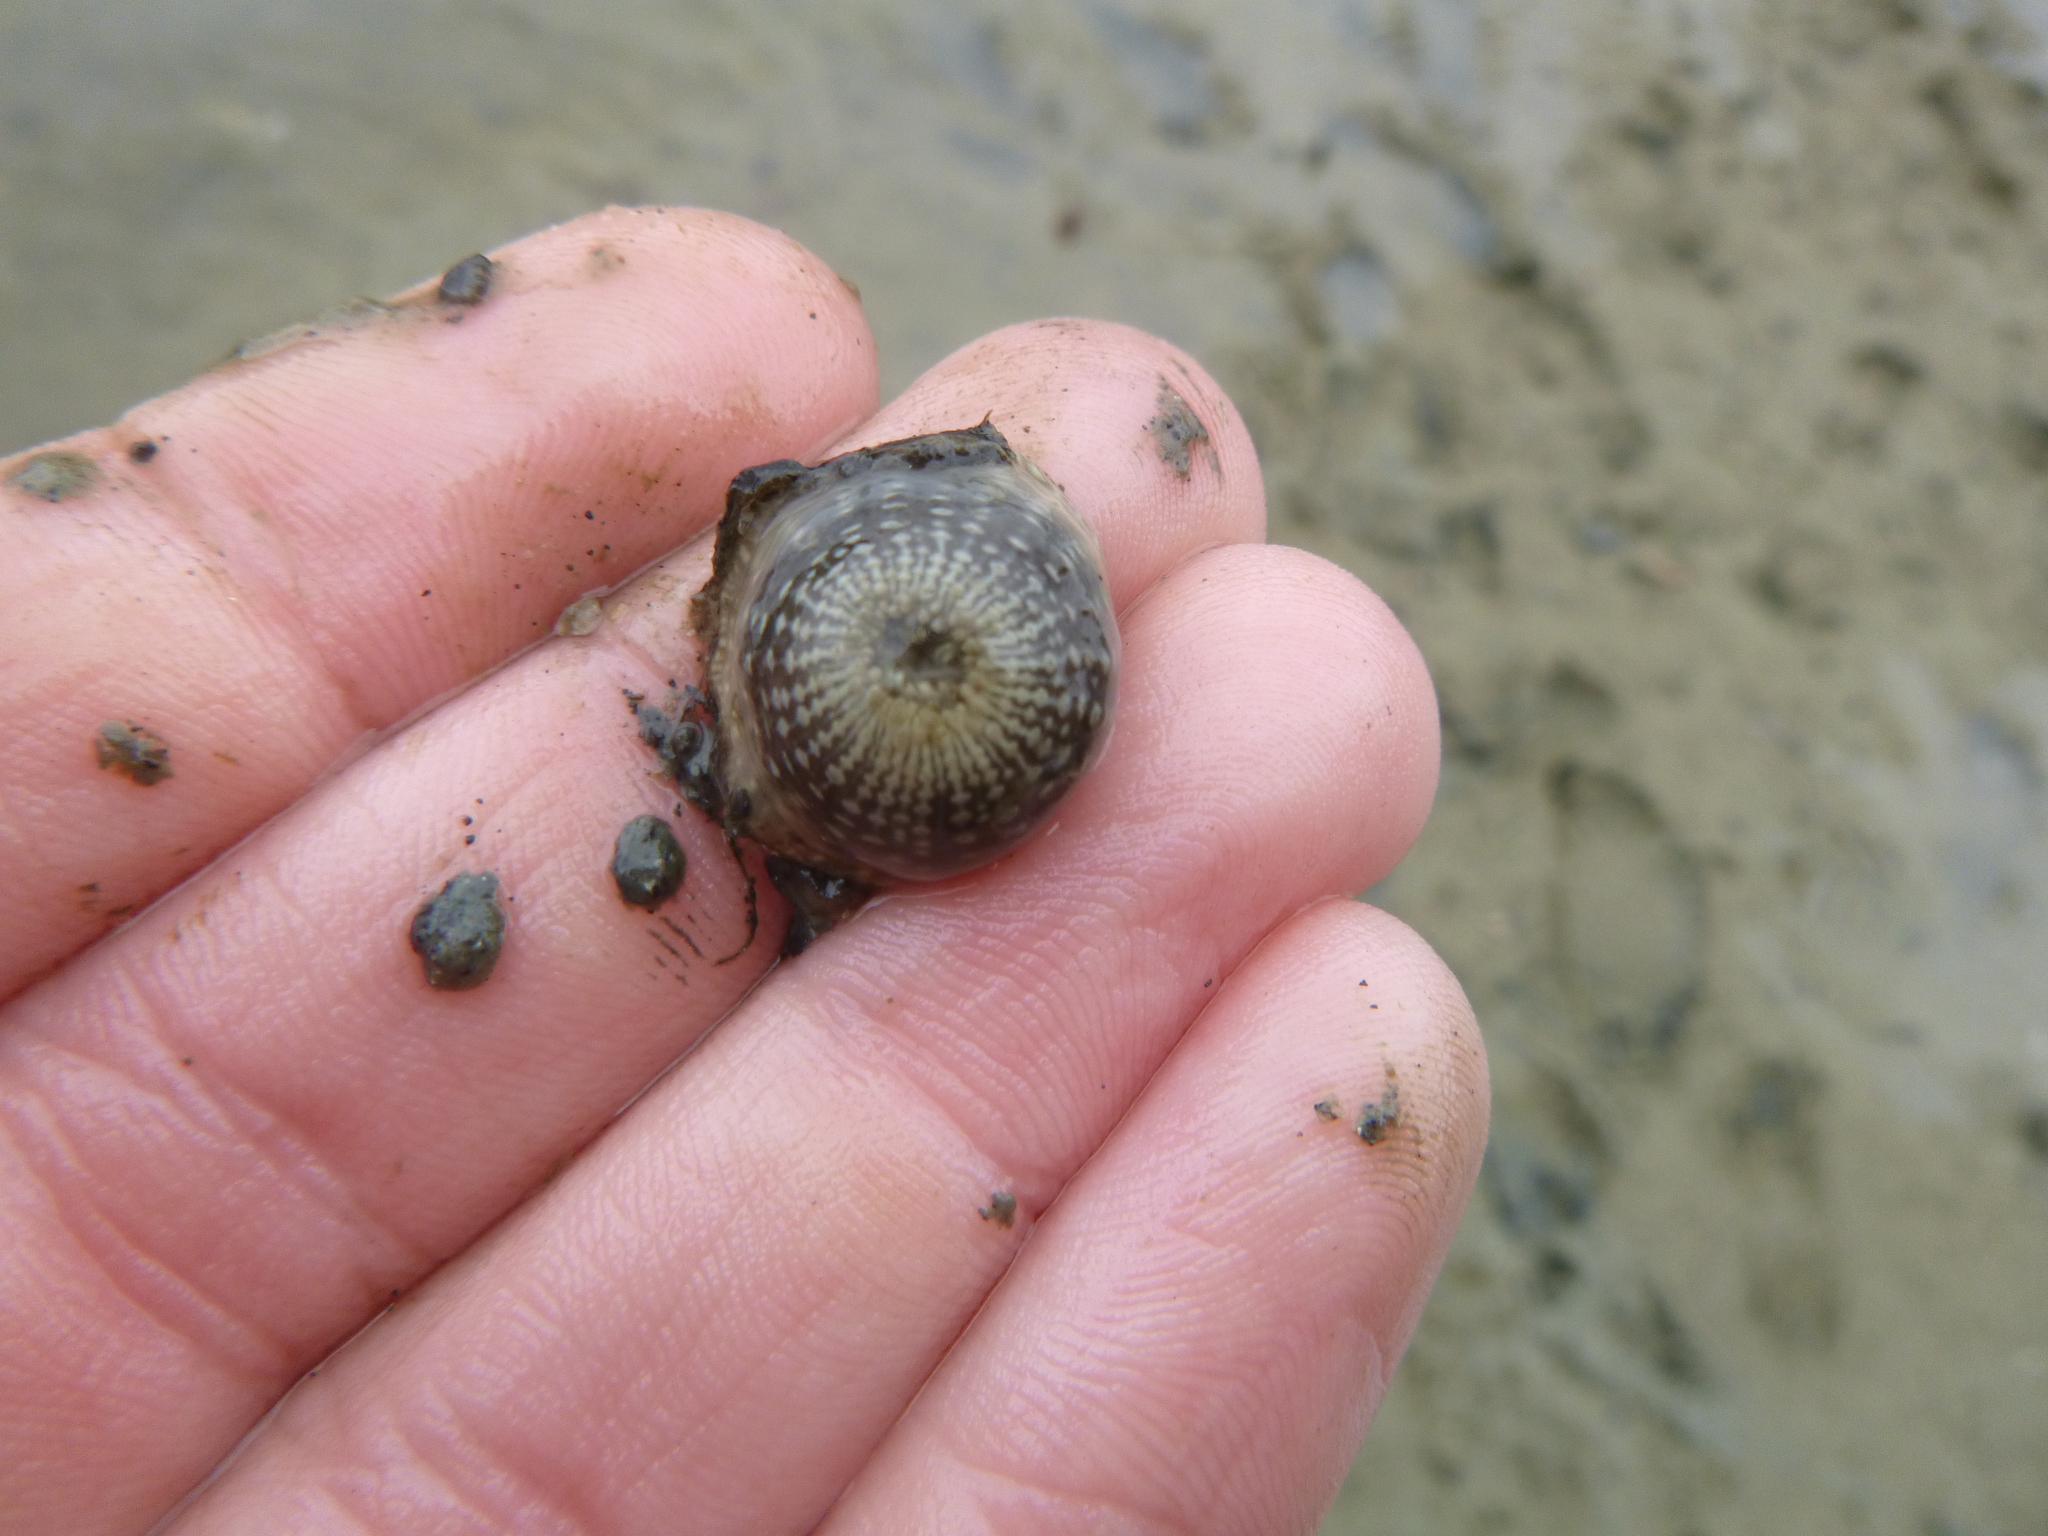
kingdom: Animalia
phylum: Cnidaria
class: Anthozoa
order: Actiniaria
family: Actiniidae
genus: Anthopleura
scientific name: Anthopleura hermaphroditica
